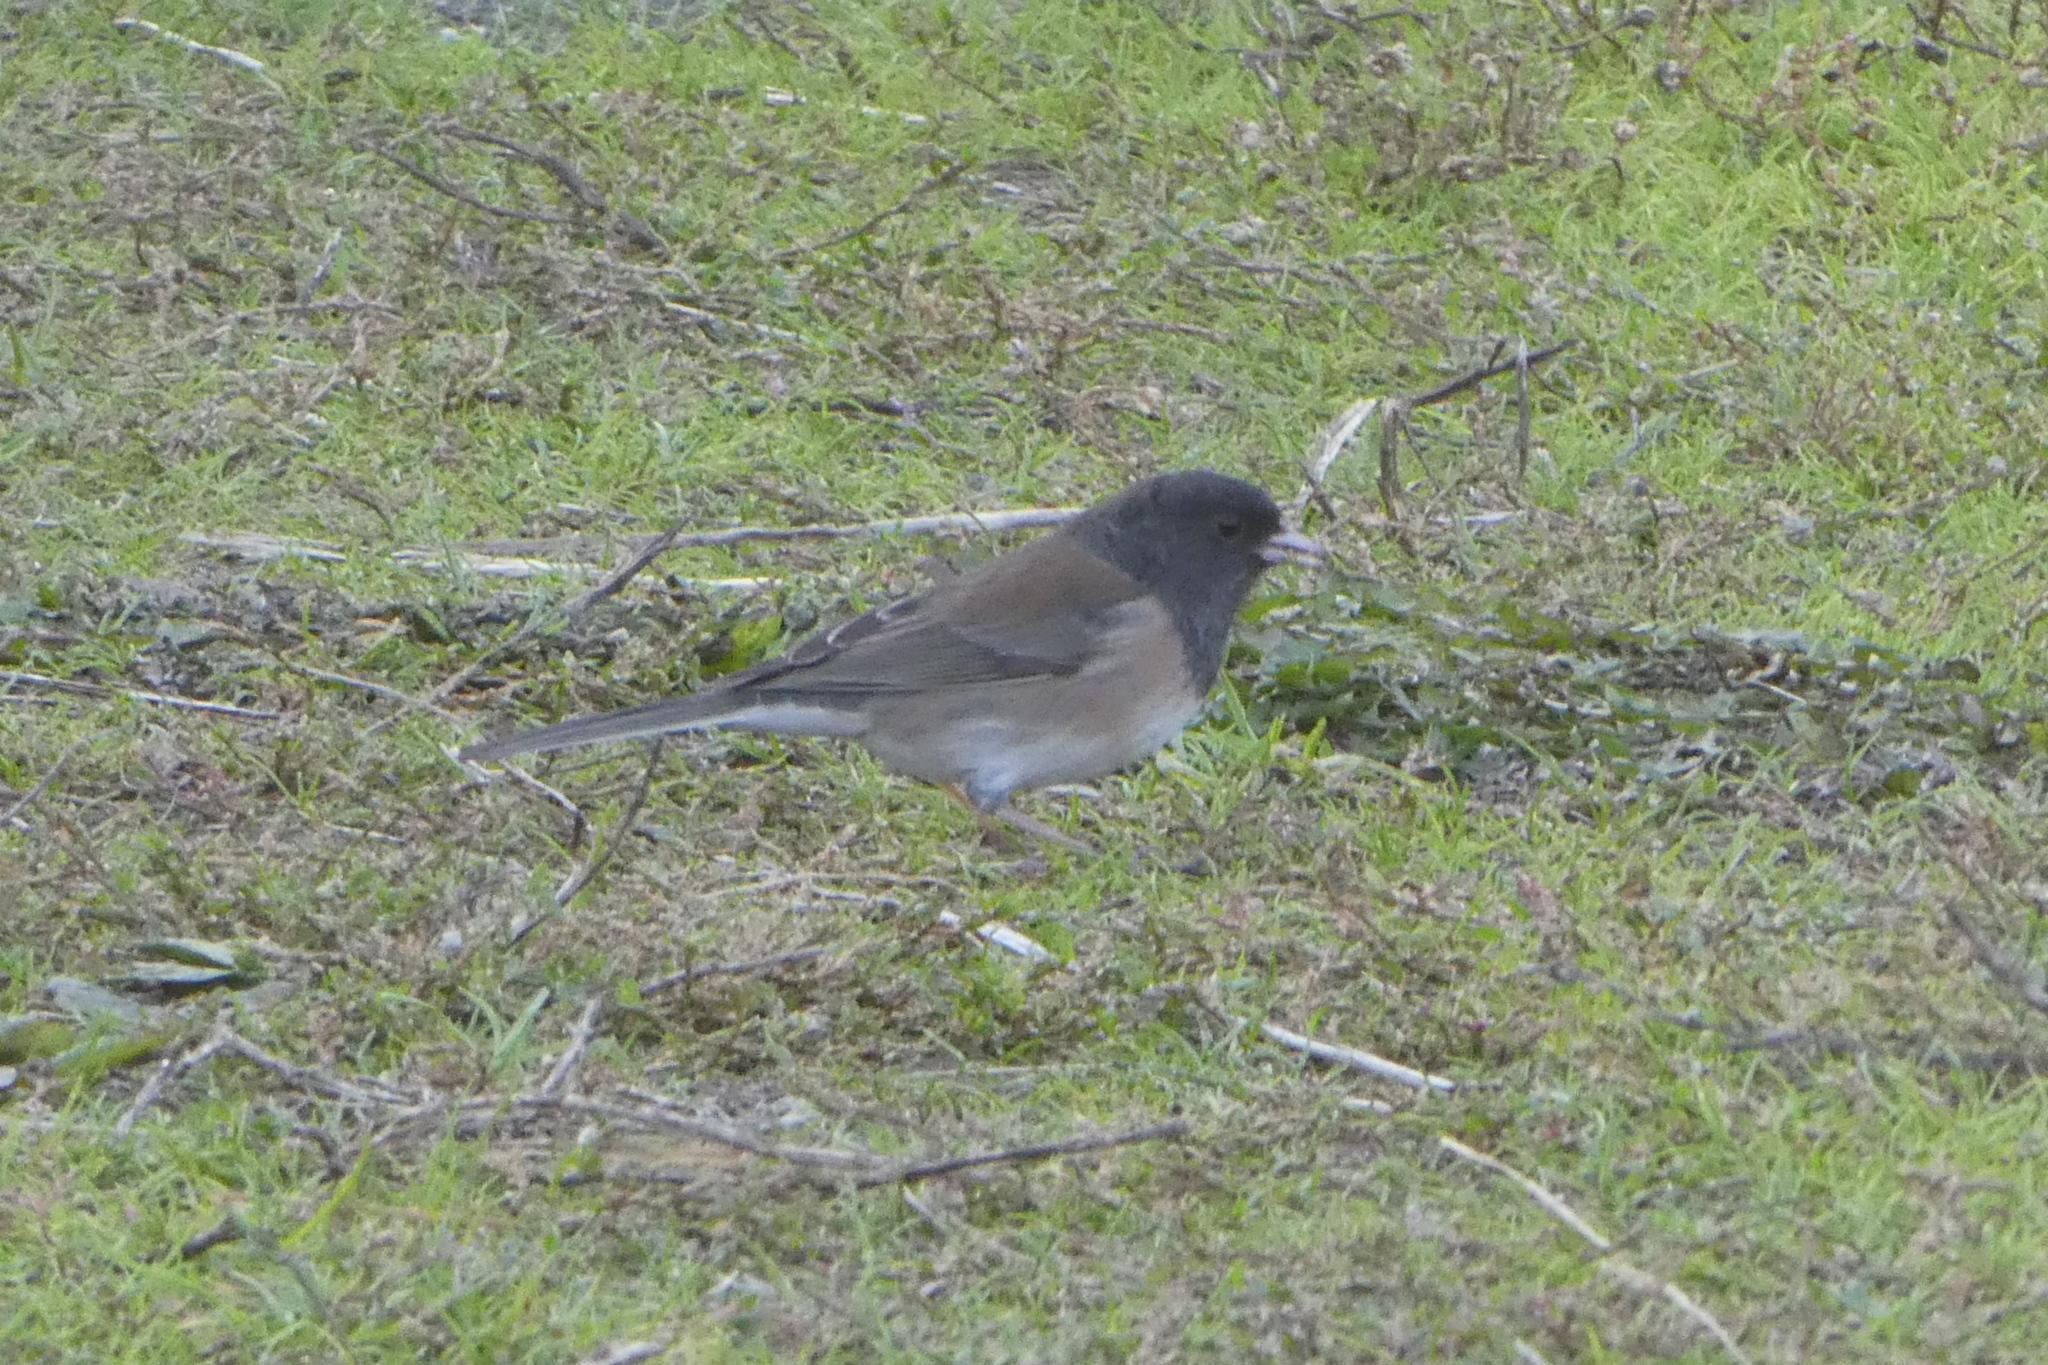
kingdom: Animalia
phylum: Chordata
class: Aves
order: Passeriformes
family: Passerellidae
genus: Junco
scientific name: Junco hyemalis
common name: Dark-eyed junco
